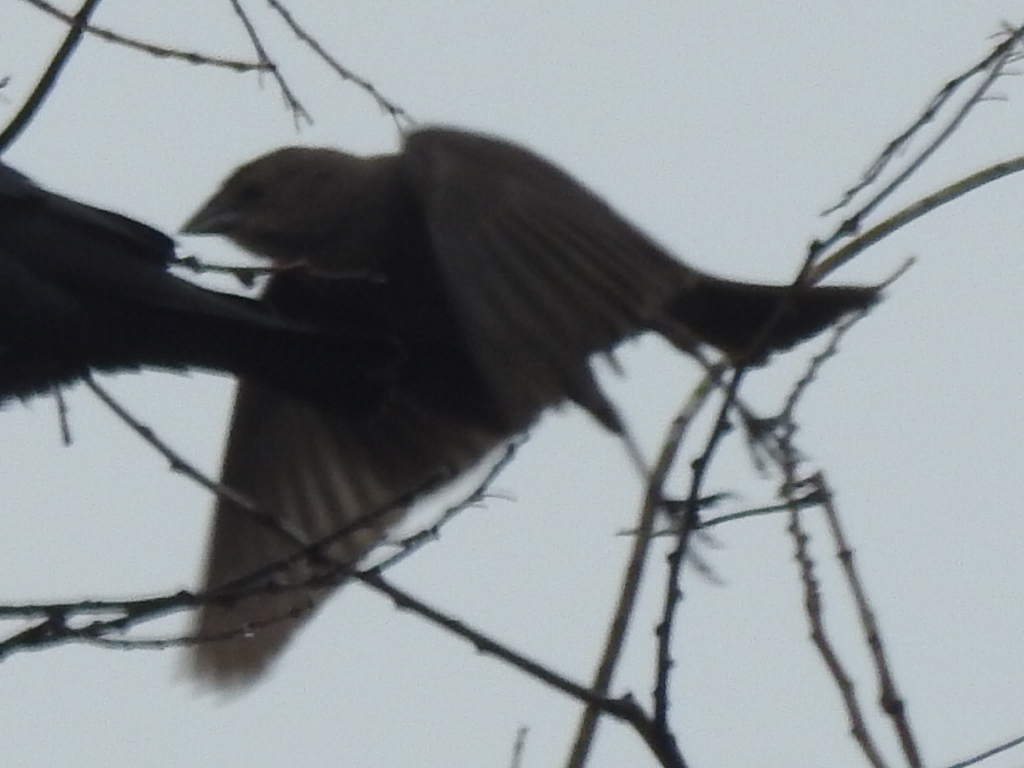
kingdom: Animalia
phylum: Chordata
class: Aves
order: Passeriformes
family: Icteridae
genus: Molothrus
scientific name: Molothrus ater
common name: Brown-headed cowbird
